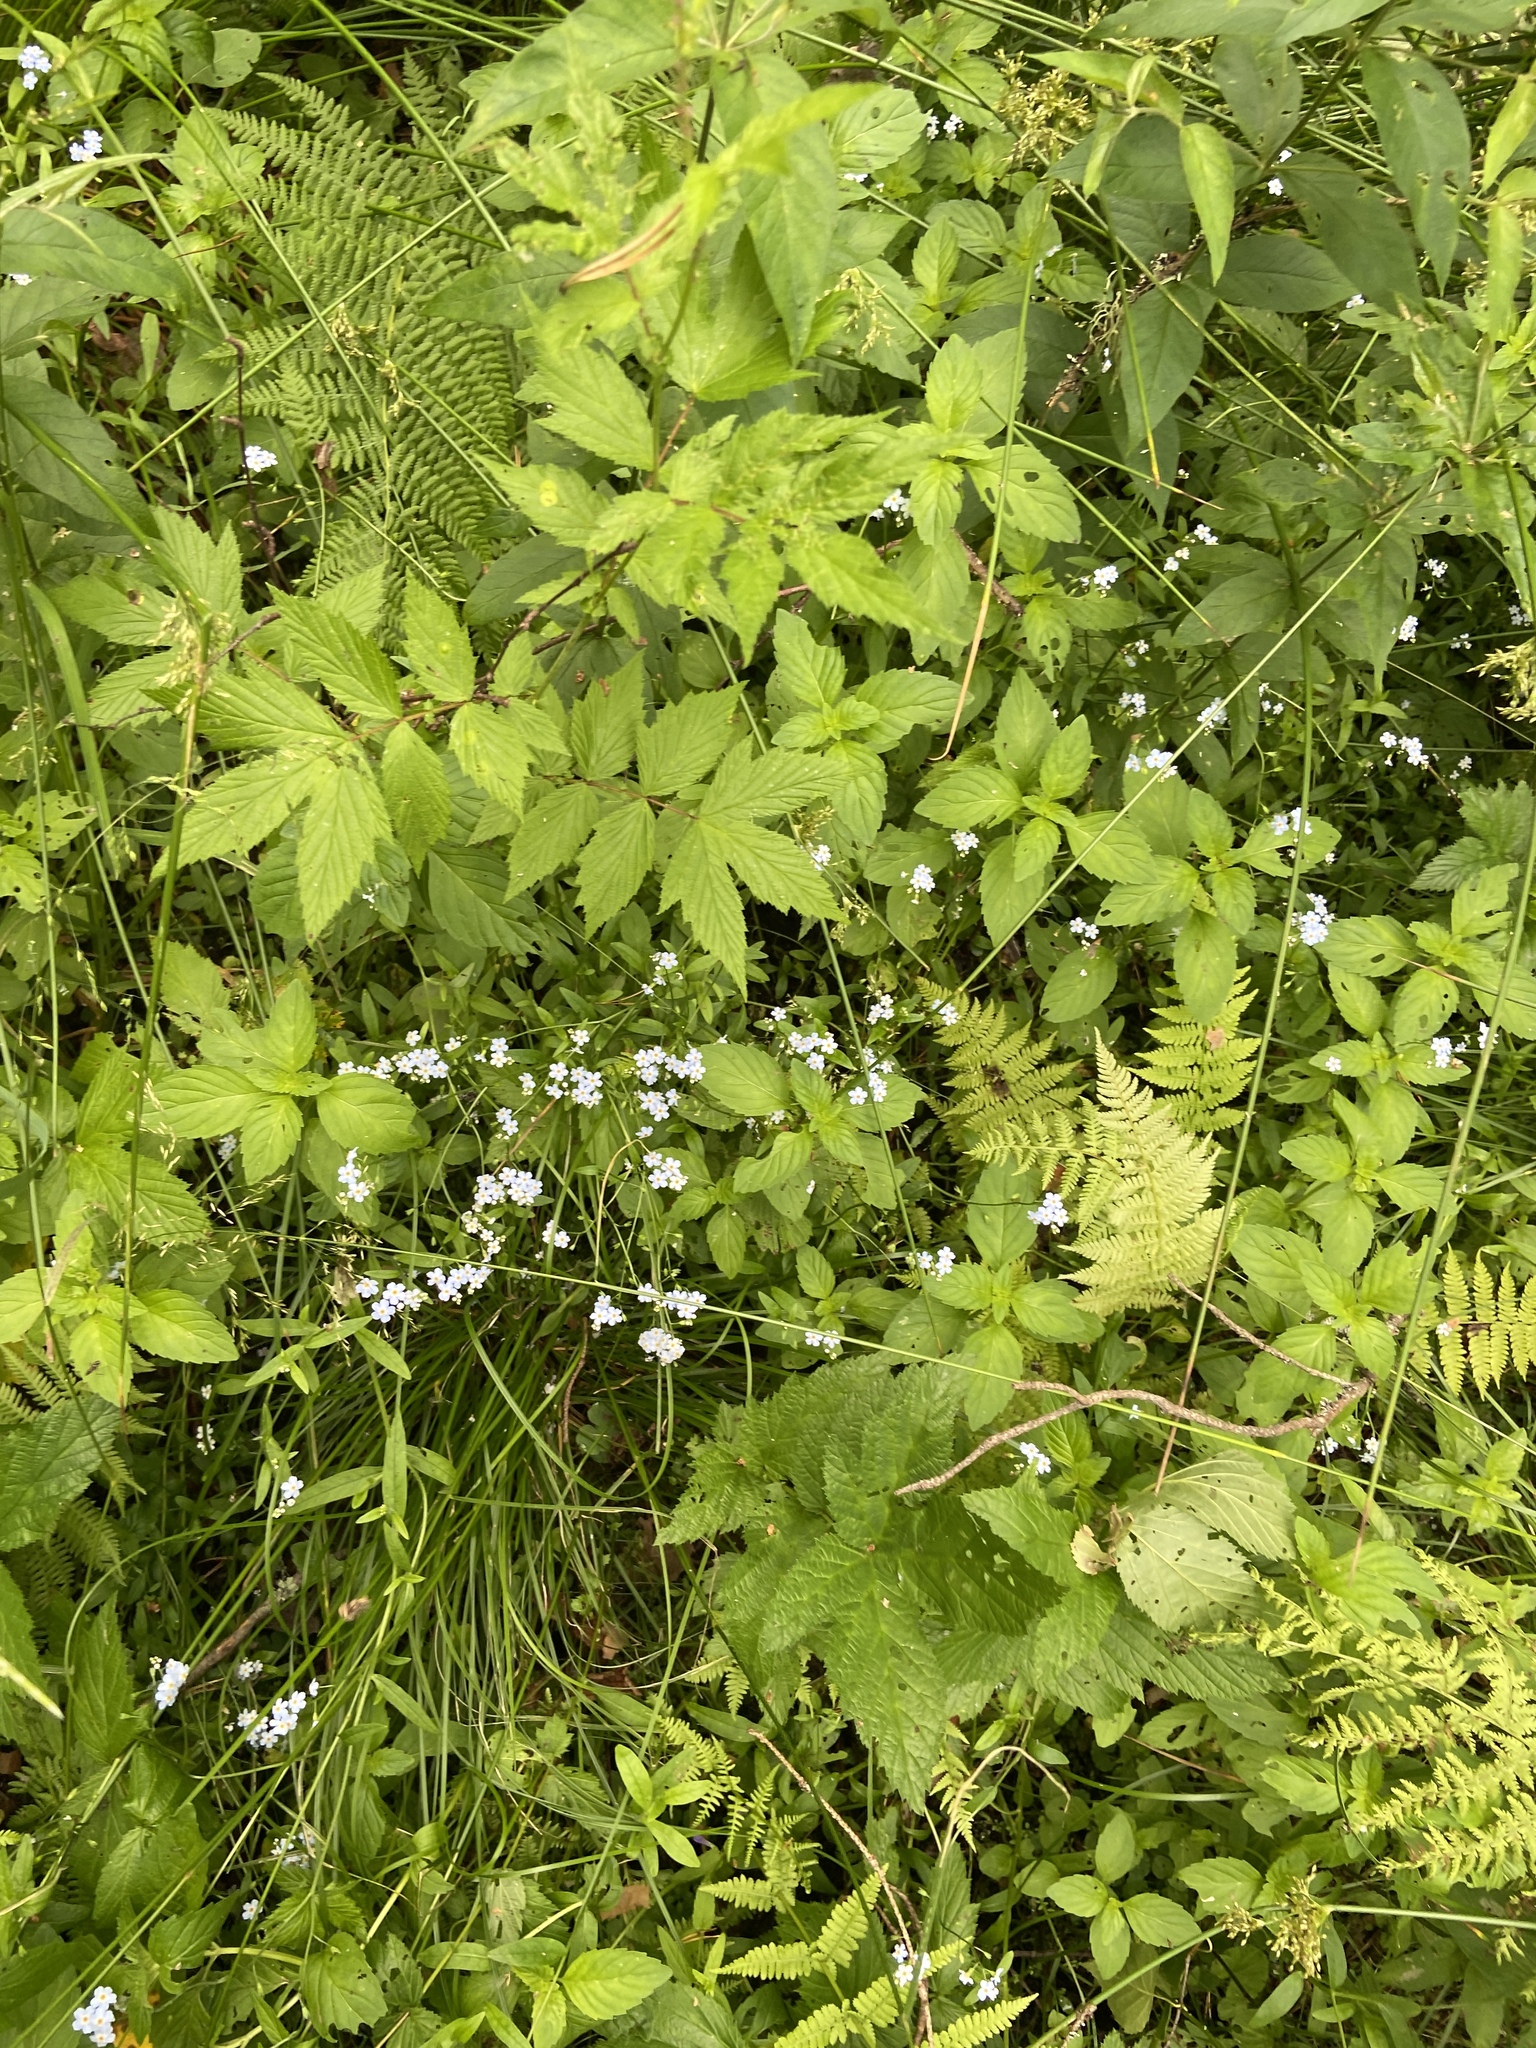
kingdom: Plantae
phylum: Tracheophyta
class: Magnoliopsida
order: Boraginales
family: Boraginaceae
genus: Myosotis
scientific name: Myosotis scorpioides
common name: Water forget-me-not
